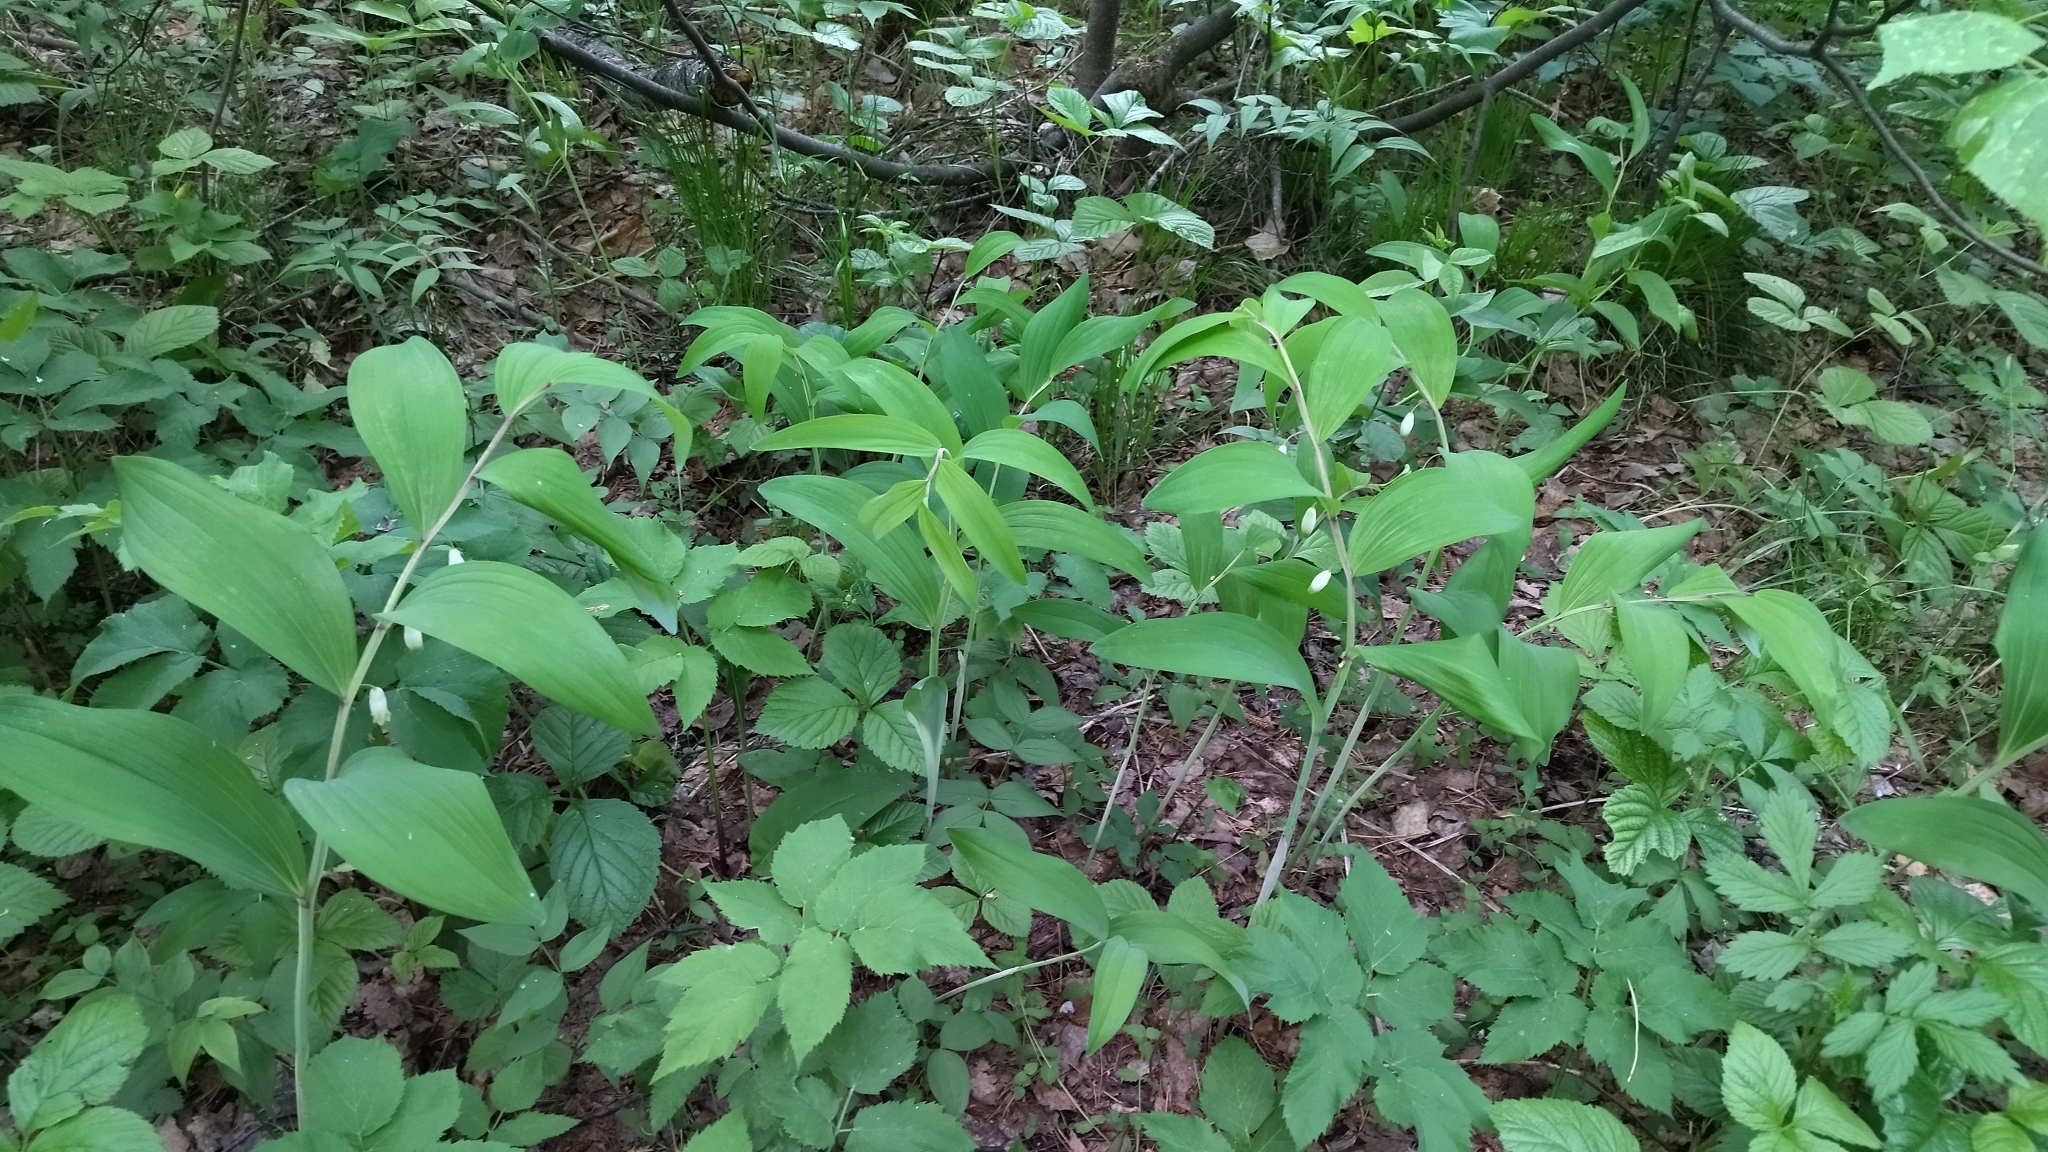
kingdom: Plantae
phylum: Tracheophyta
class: Liliopsida
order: Asparagales
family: Asparagaceae
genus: Polygonatum
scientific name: Polygonatum odoratum
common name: Angular solomon's-seal
